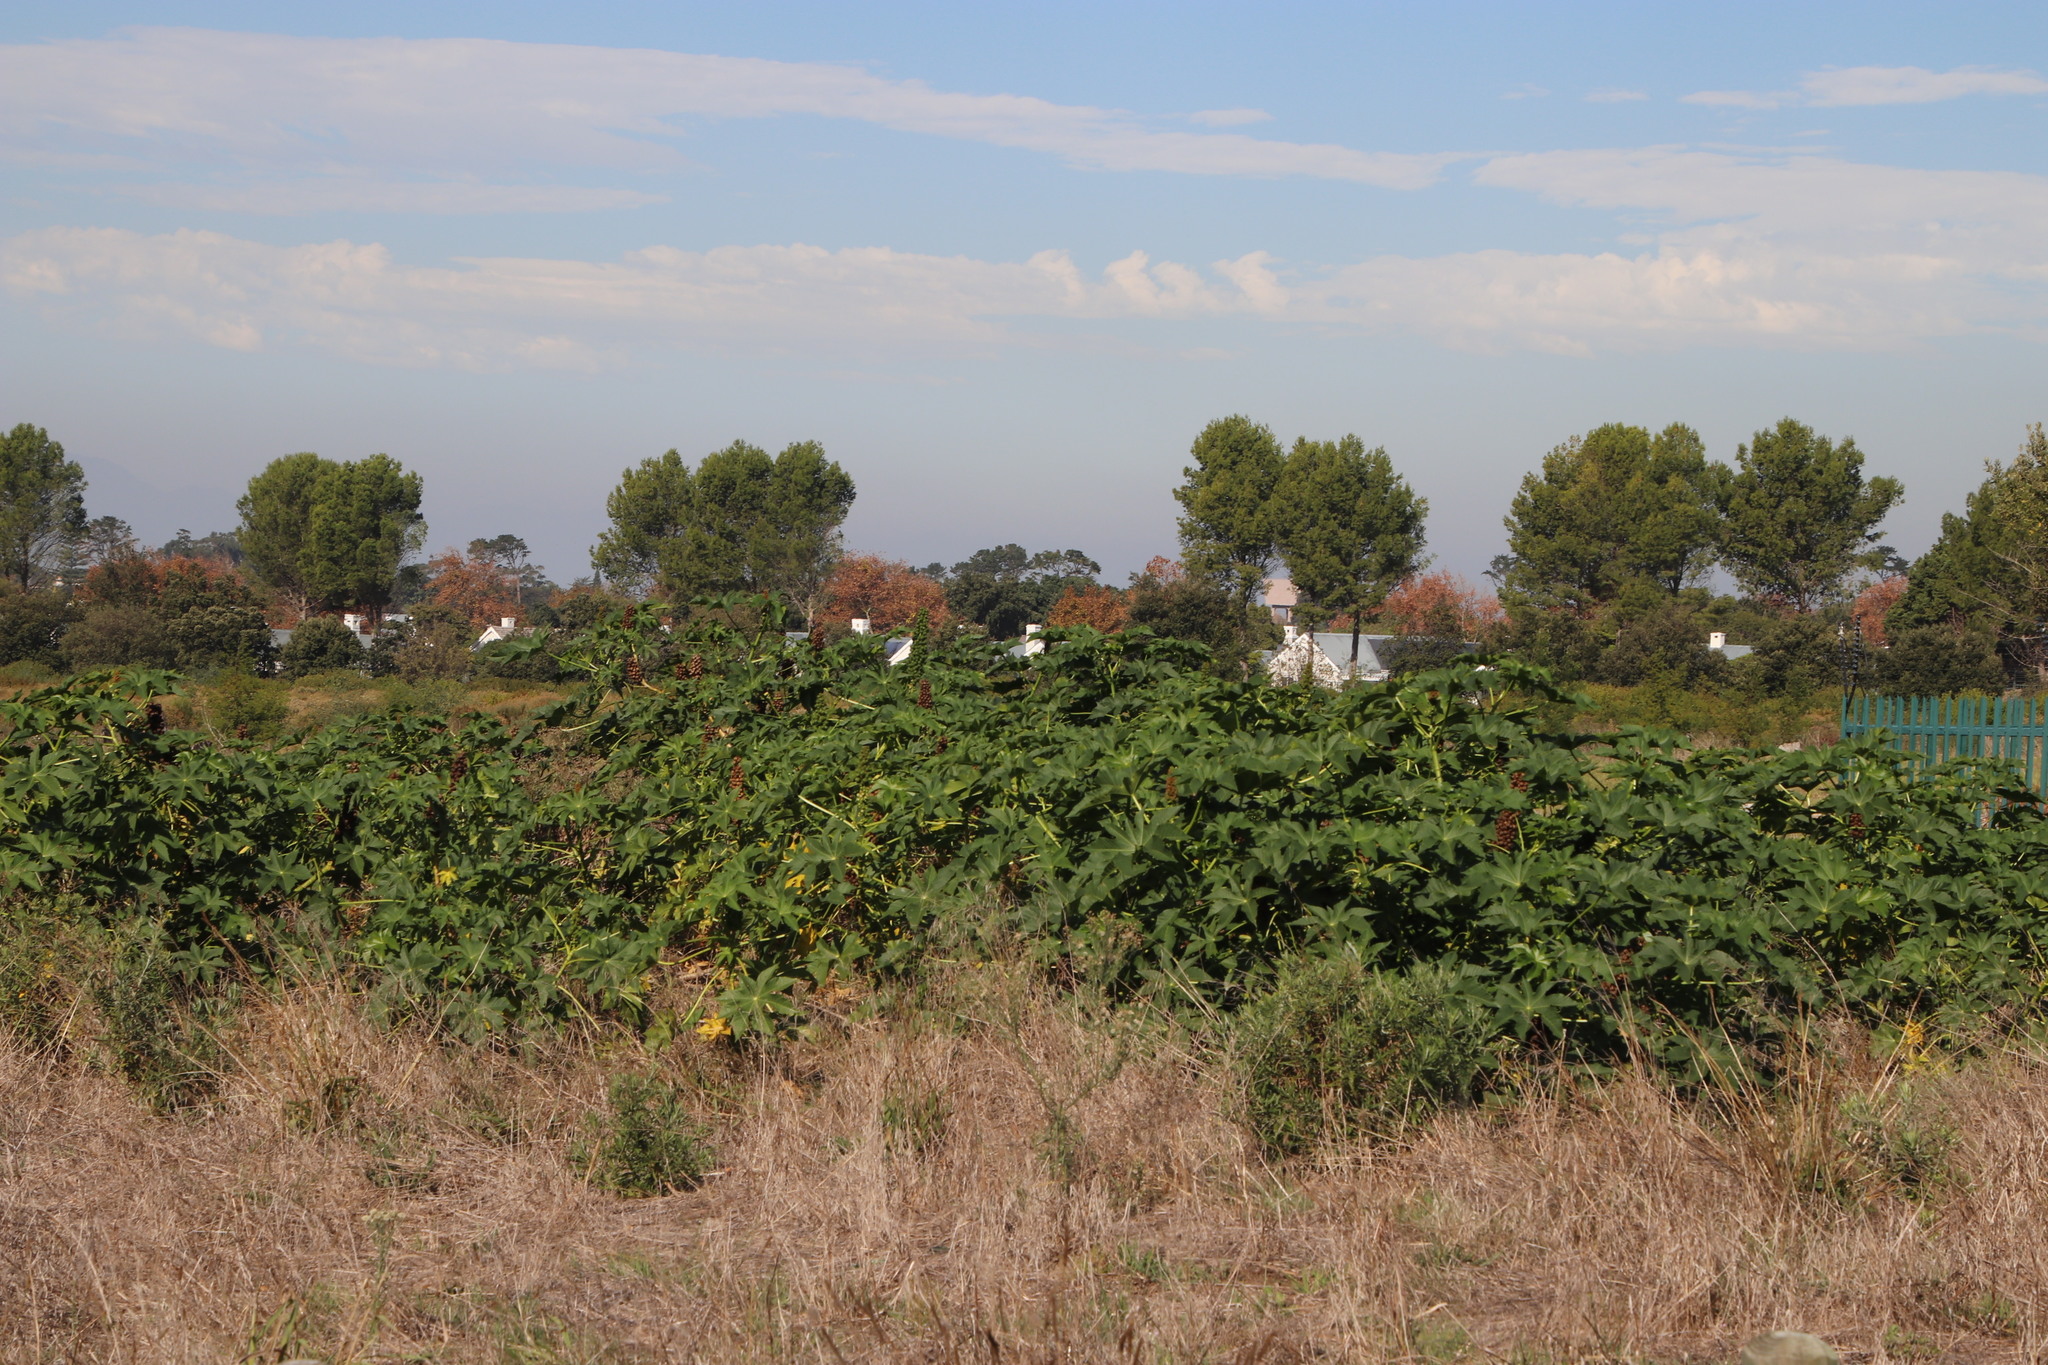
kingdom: Plantae
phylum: Tracheophyta
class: Magnoliopsida
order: Malpighiales
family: Euphorbiaceae
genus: Ricinus
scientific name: Ricinus communis
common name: Castor-oil-plant
